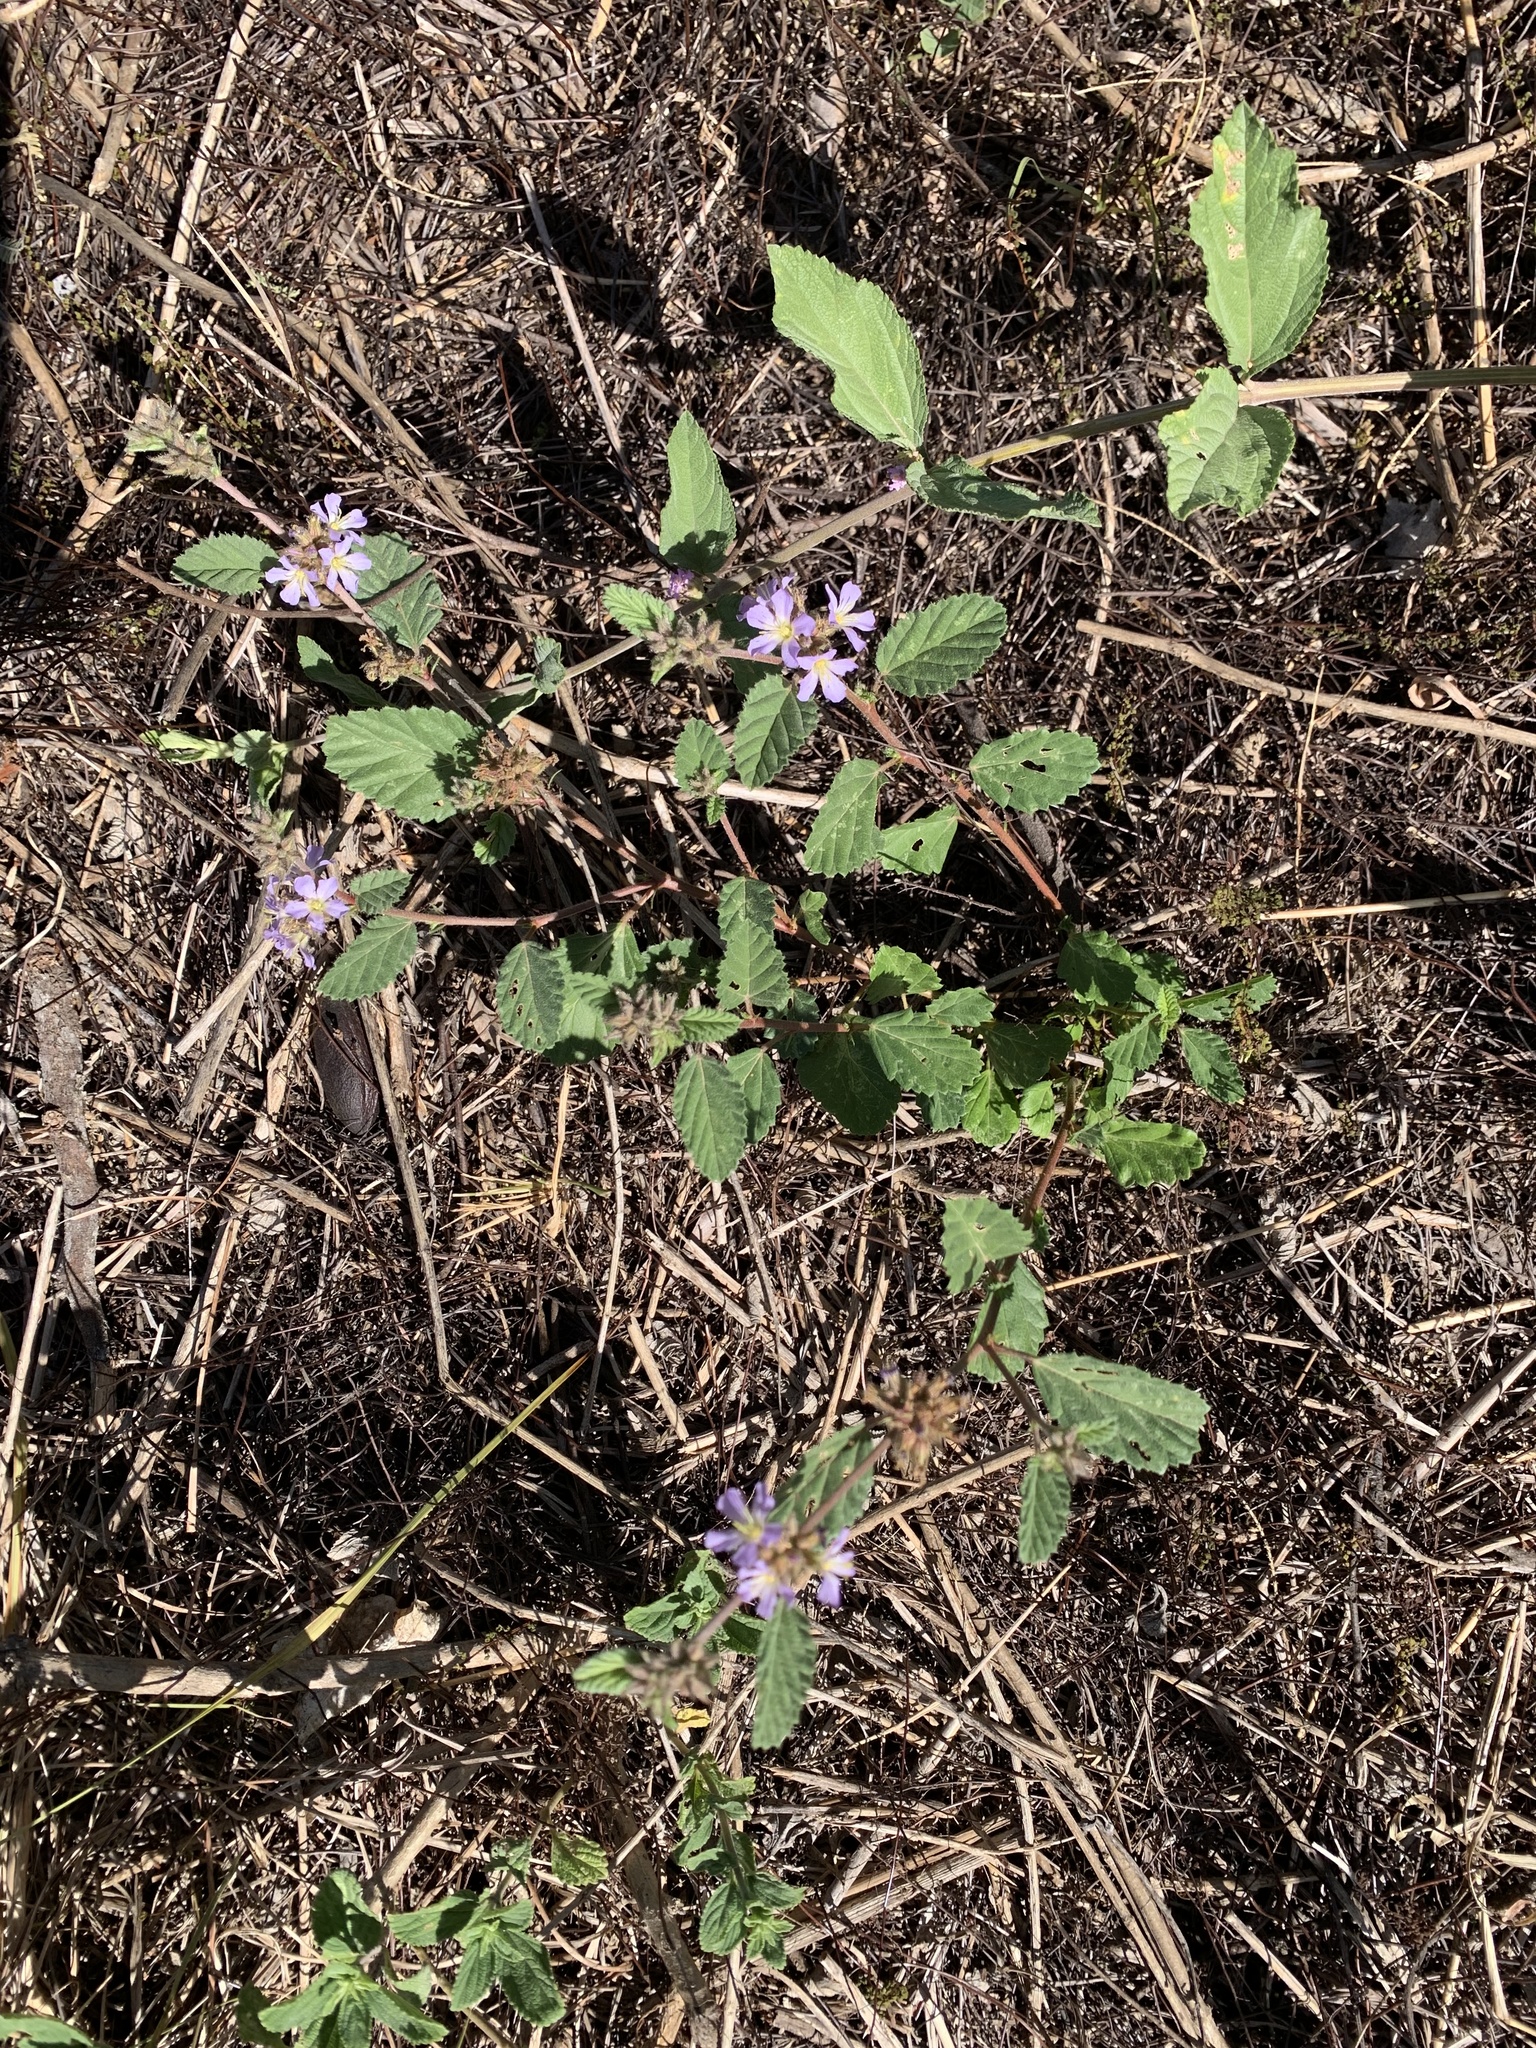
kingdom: Plantae
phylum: Tracheophyta
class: Magnoliopsida
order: Malvales
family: Malvaceae
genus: Melochia
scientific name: Melochia anomala
